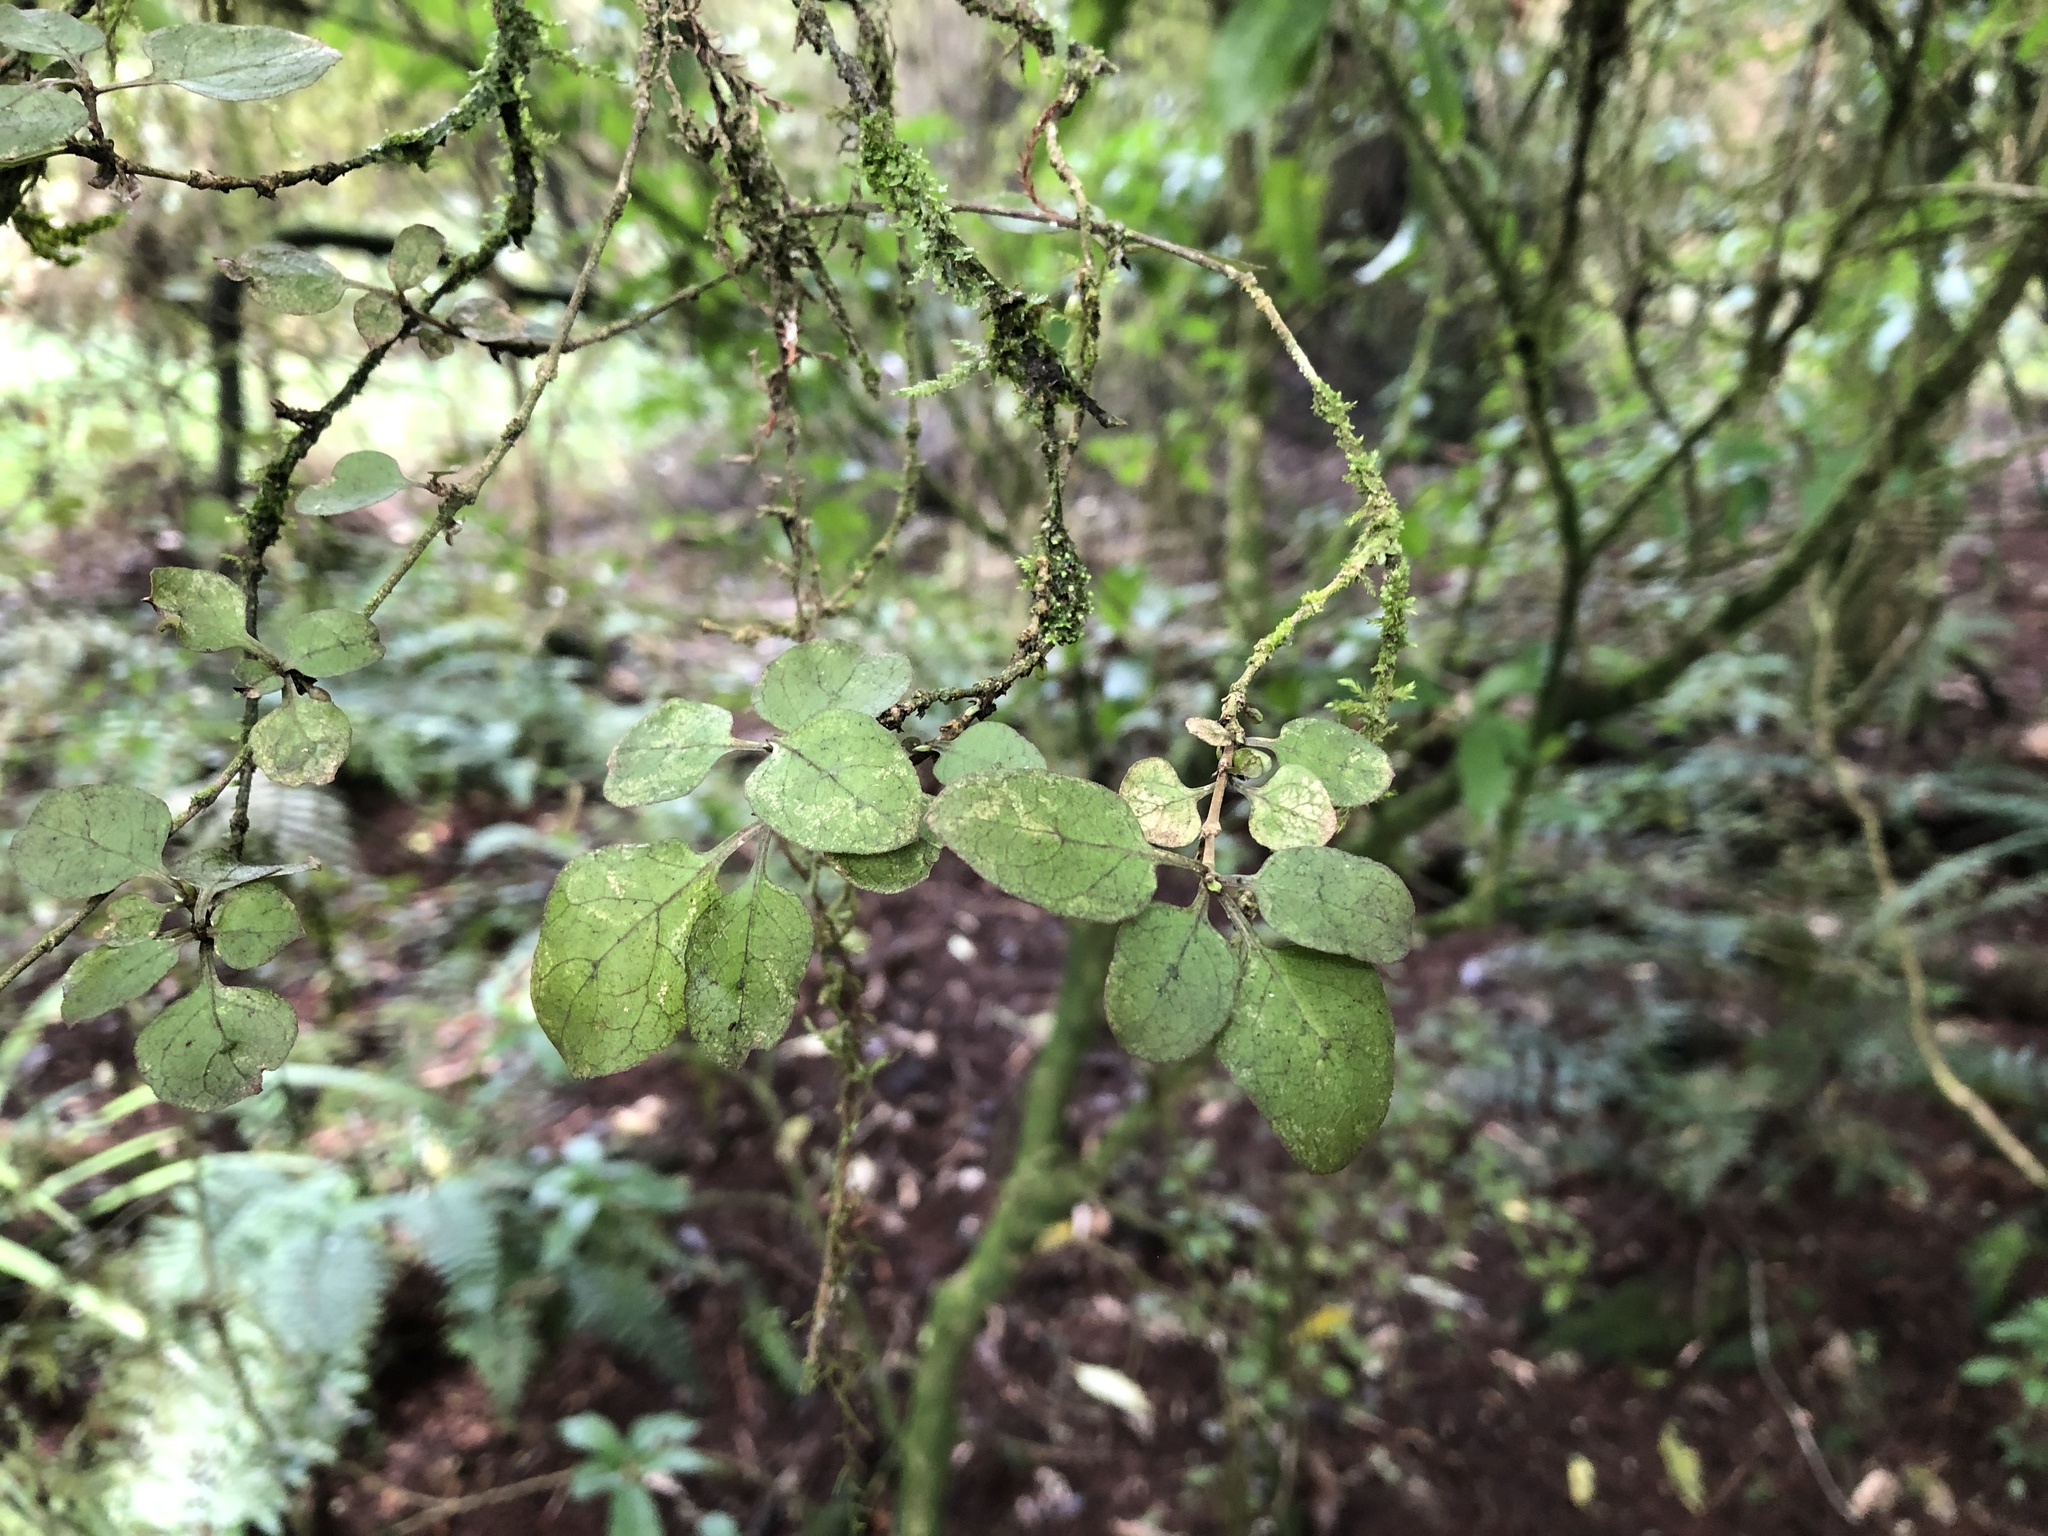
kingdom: Plantae
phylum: Tracheophyta
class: Magnoliopsida
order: Gentianales
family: Rubiaceae
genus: Coprosma
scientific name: Coprosma rotundifolia
